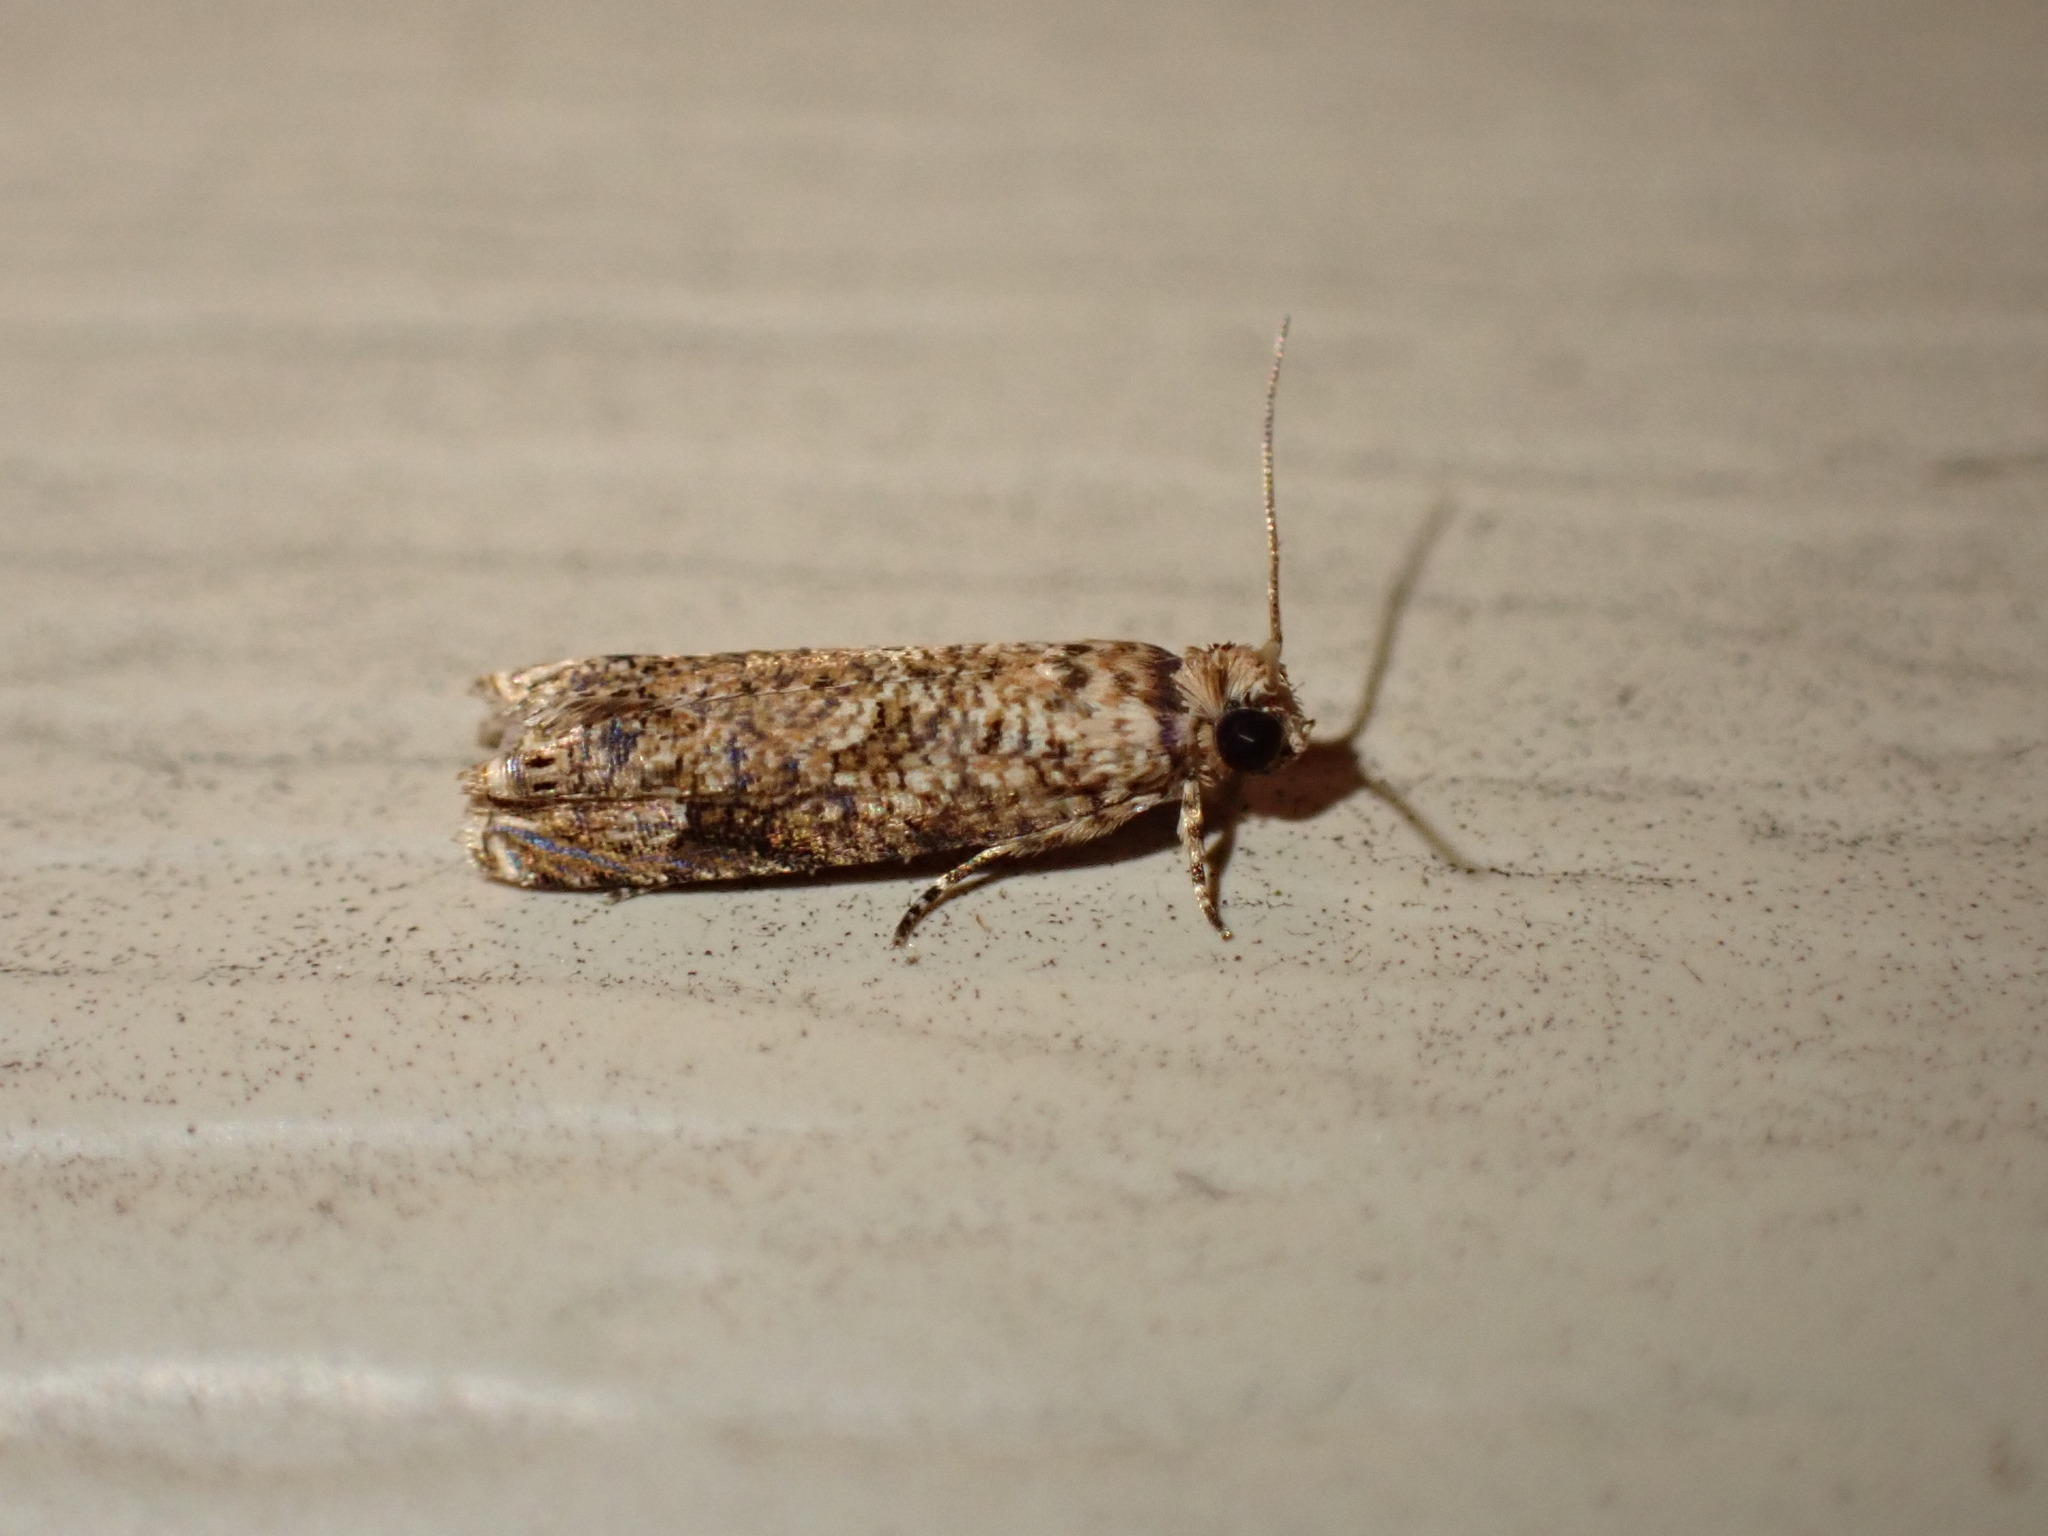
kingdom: Animalia
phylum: Arthropoda
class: Insecta
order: Lepidoptera
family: Tortricidae
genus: Episimus
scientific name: Episimus argutana
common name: Sumac leaftier moth
